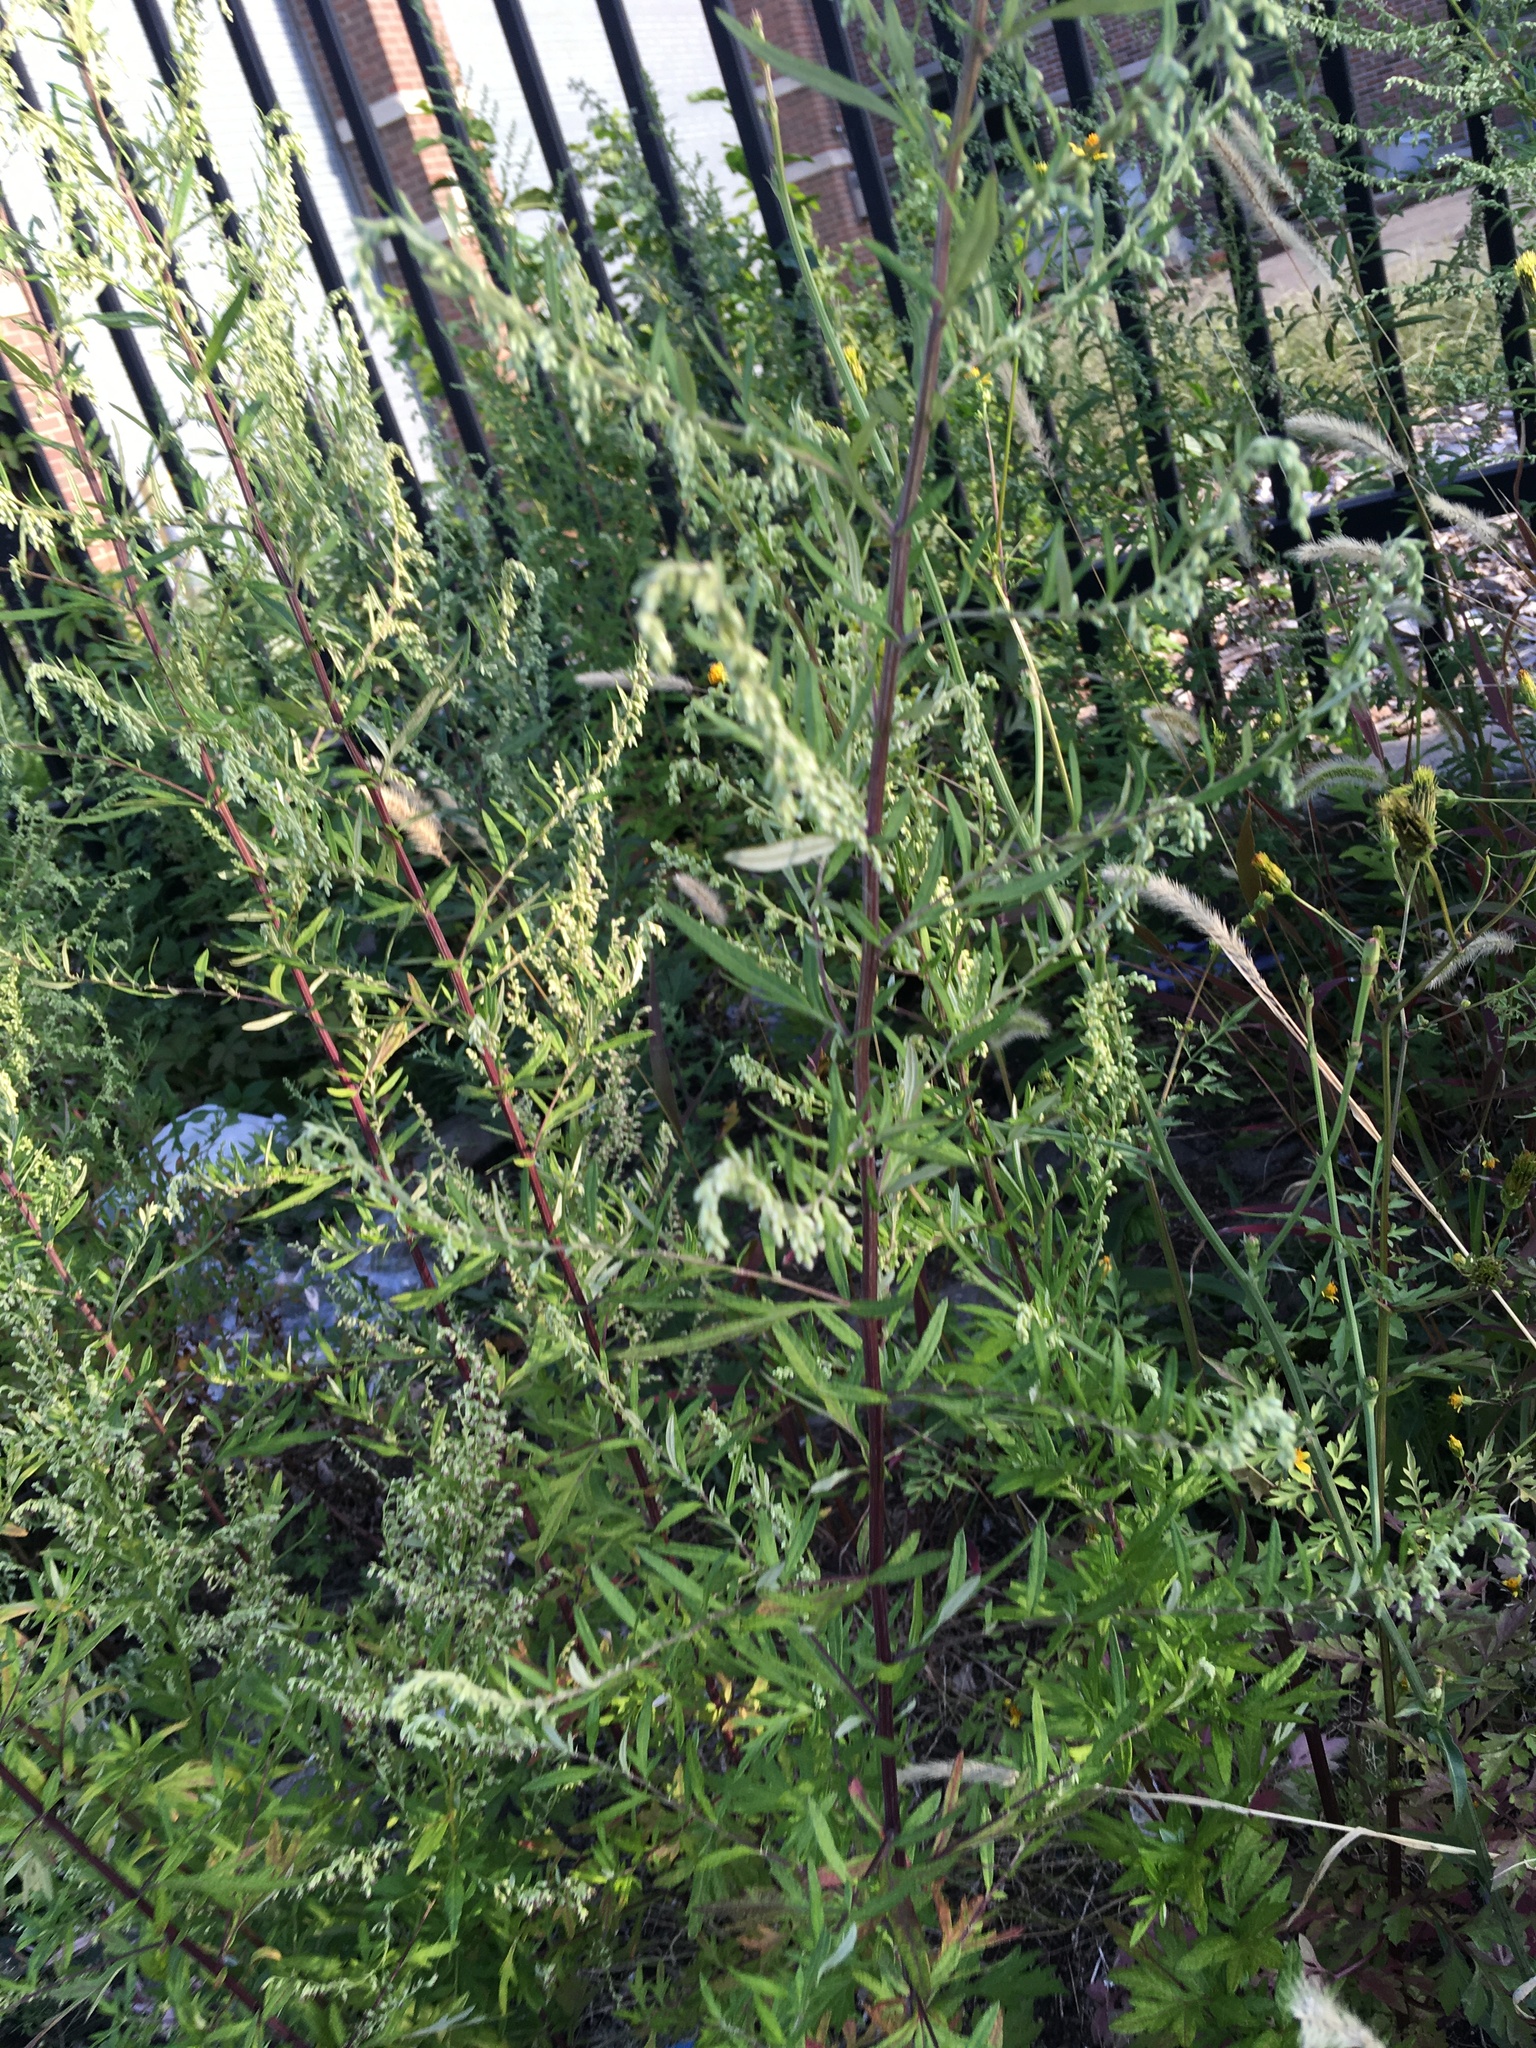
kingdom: Plantae
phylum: Tracheophyta
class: Magnoliopsida
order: Asterales
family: Asteraceae
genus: Artemisia
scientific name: Artemisia vulgaris
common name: Mugwort
